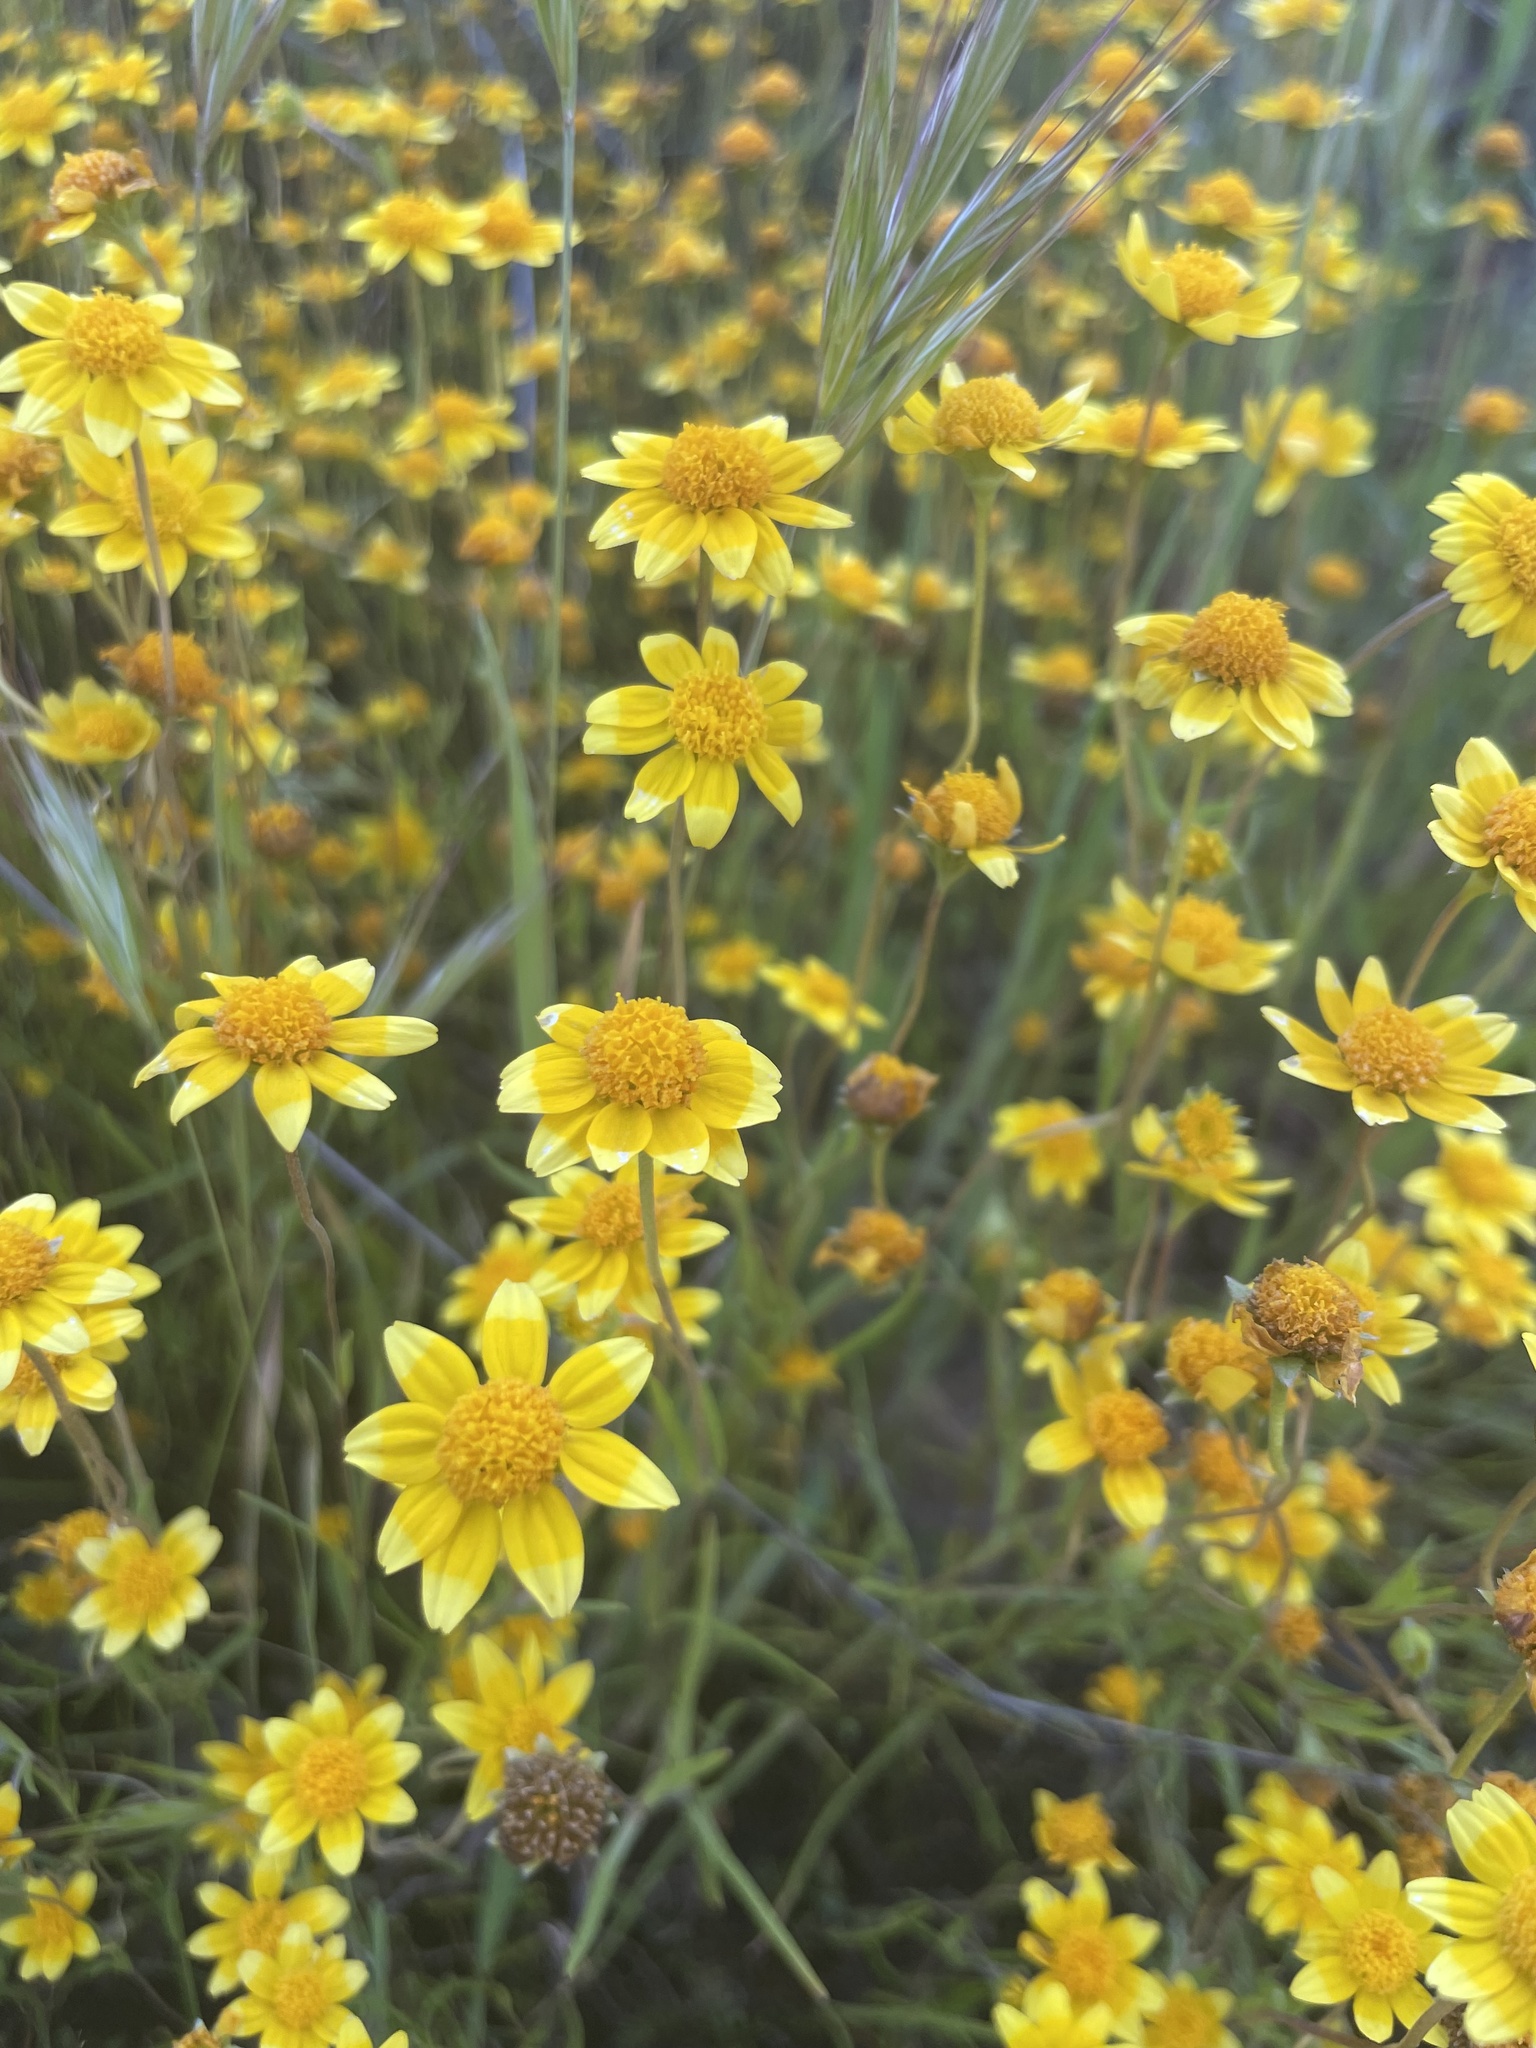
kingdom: Plantae
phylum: Tracheophyta
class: Magnoliopsida
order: Asterales
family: Asteraceae
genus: Lasthenia
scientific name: Lasthenia californica
